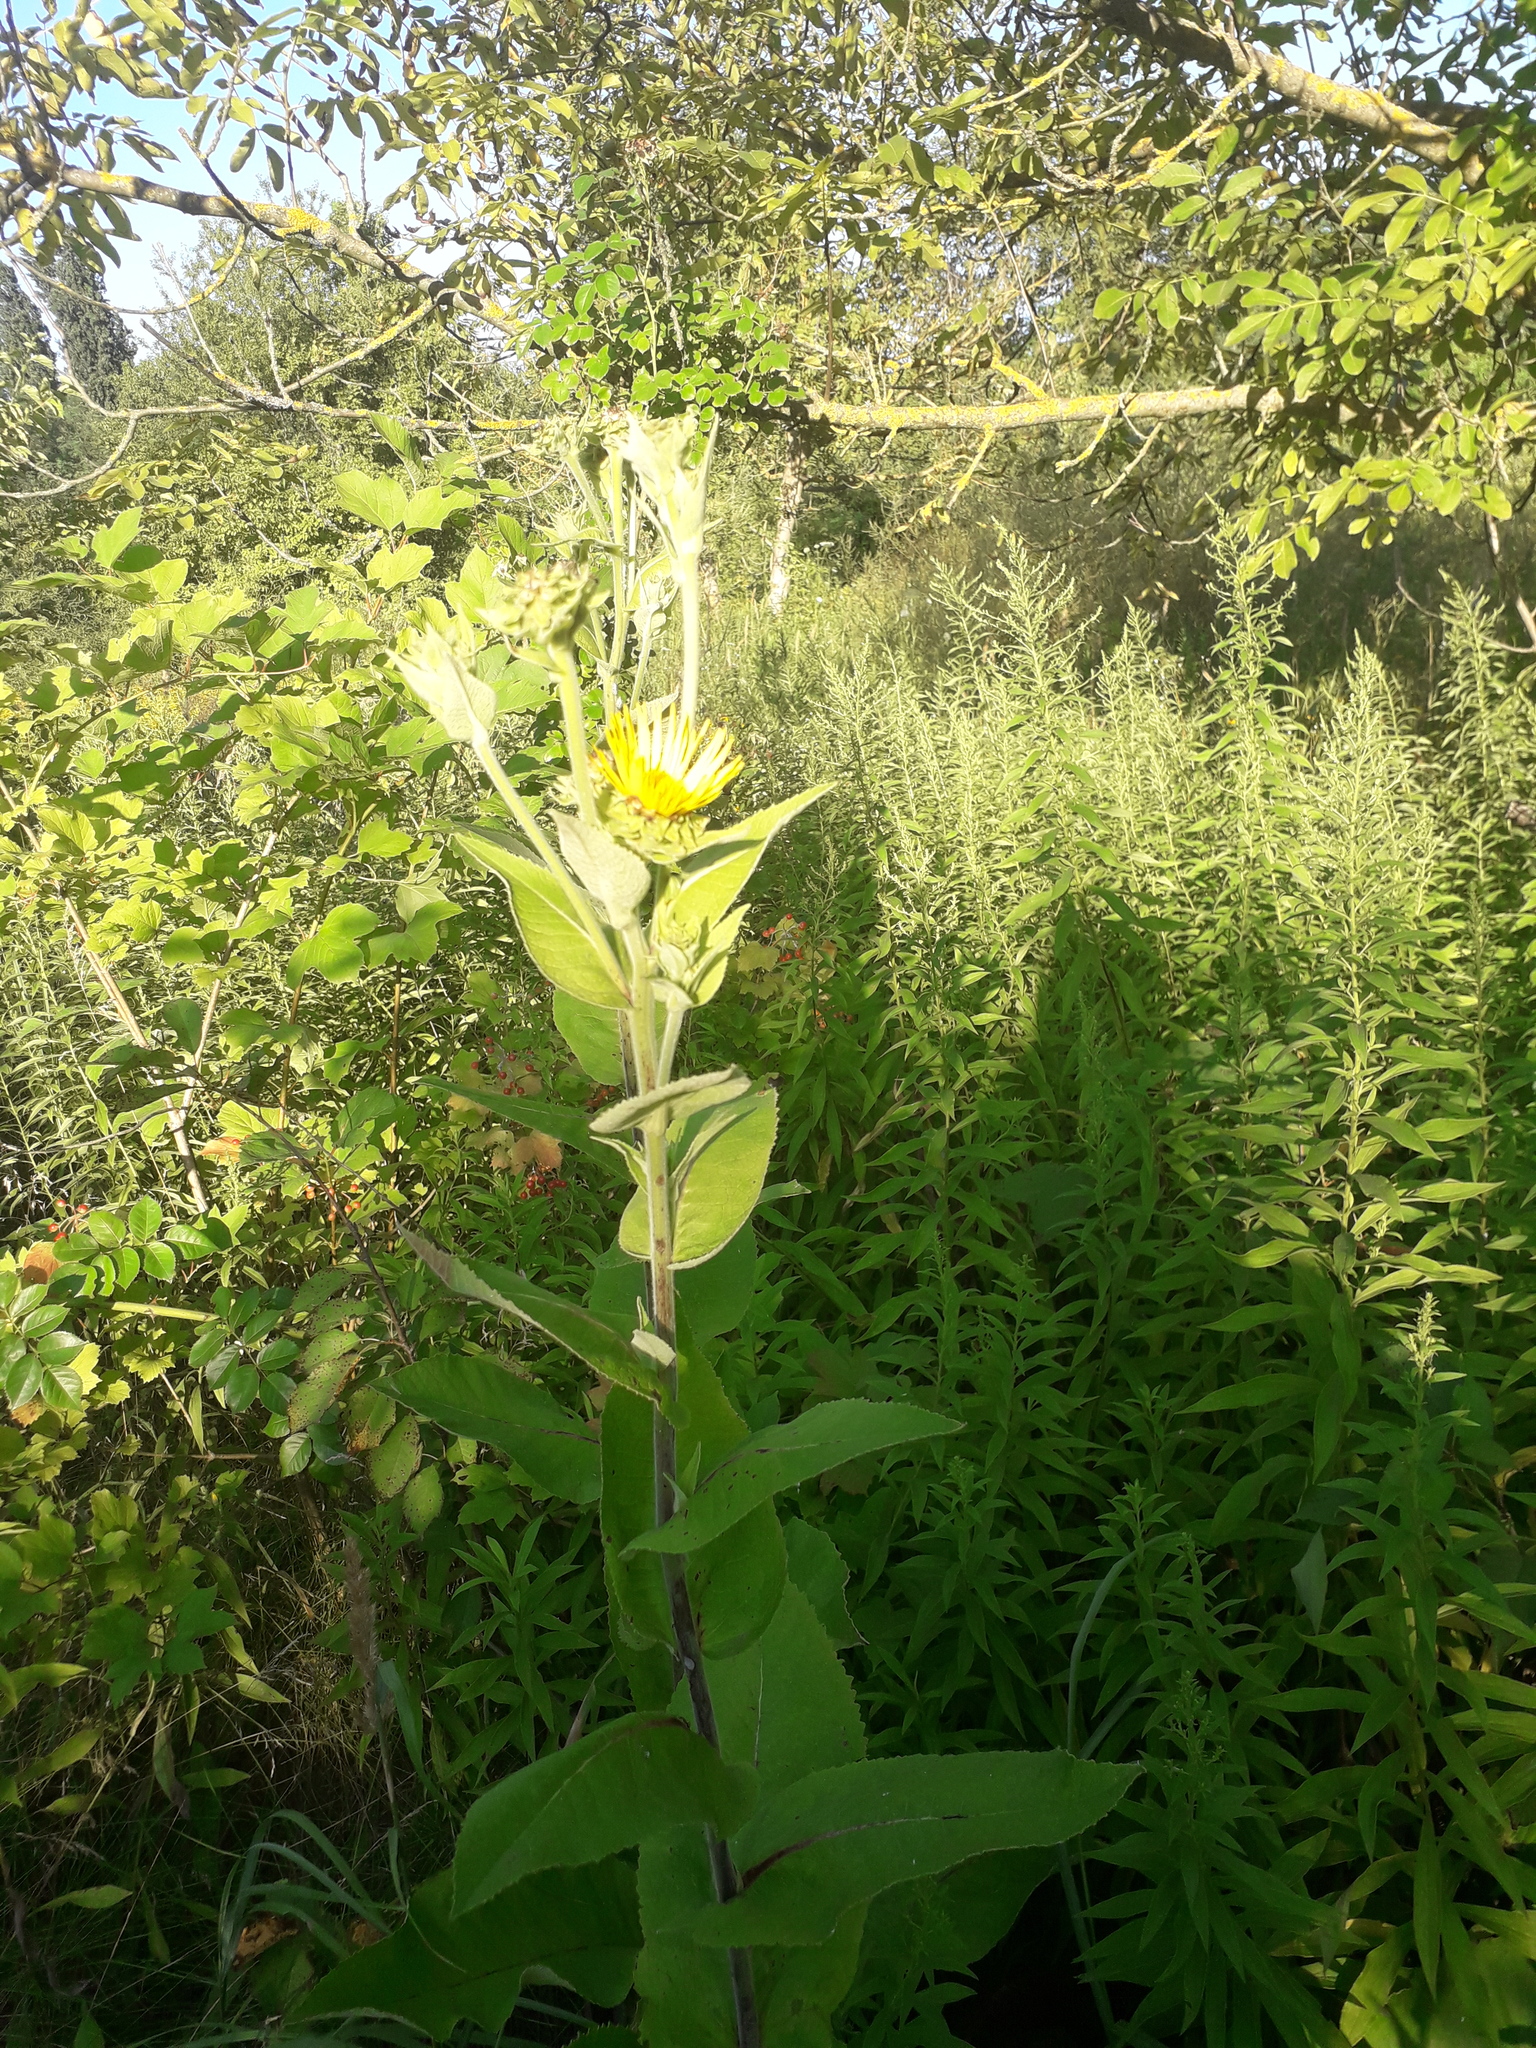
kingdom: Plantae
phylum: Tracheophyta
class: Magnoliopsida
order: Asterales
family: Asteraceae
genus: Inula
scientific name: Inula helenium
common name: Elecampane
